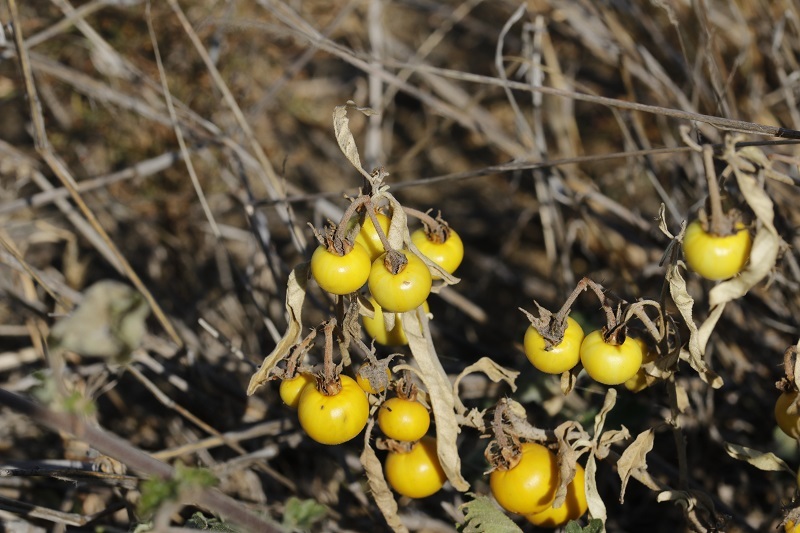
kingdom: Plantae
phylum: Tracheophyta
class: Magnoliopsida
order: Solanales
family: Solanaceae
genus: Solanum
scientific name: Solanum elaeagnifolium
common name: Silverleaf nightshade
